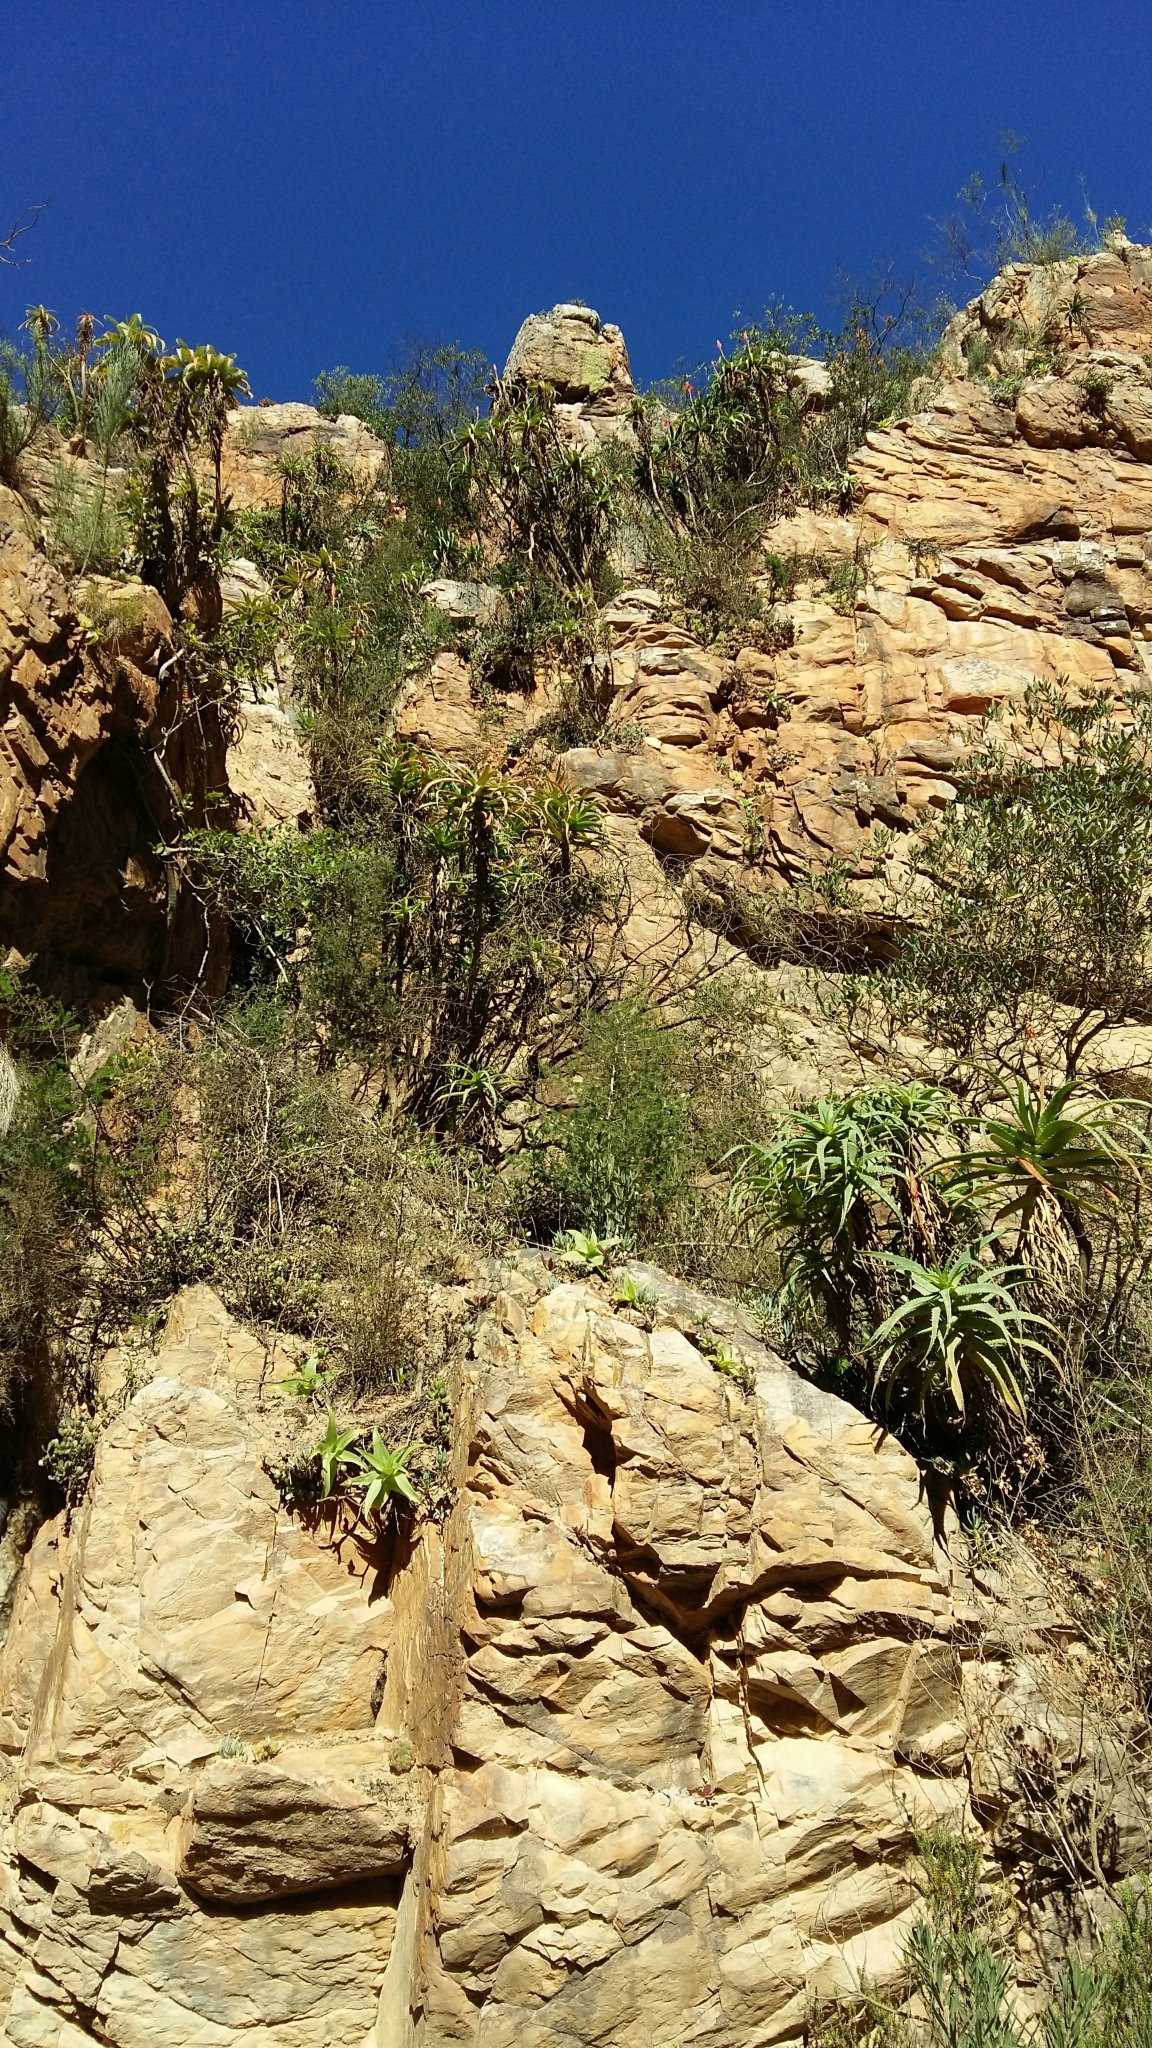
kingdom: Plantae
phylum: Tracheophyta
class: Liliopsida
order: Asparagales
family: Asphodelaceae
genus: Aloe
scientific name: Aloe arborescens
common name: Candelabra aloe
